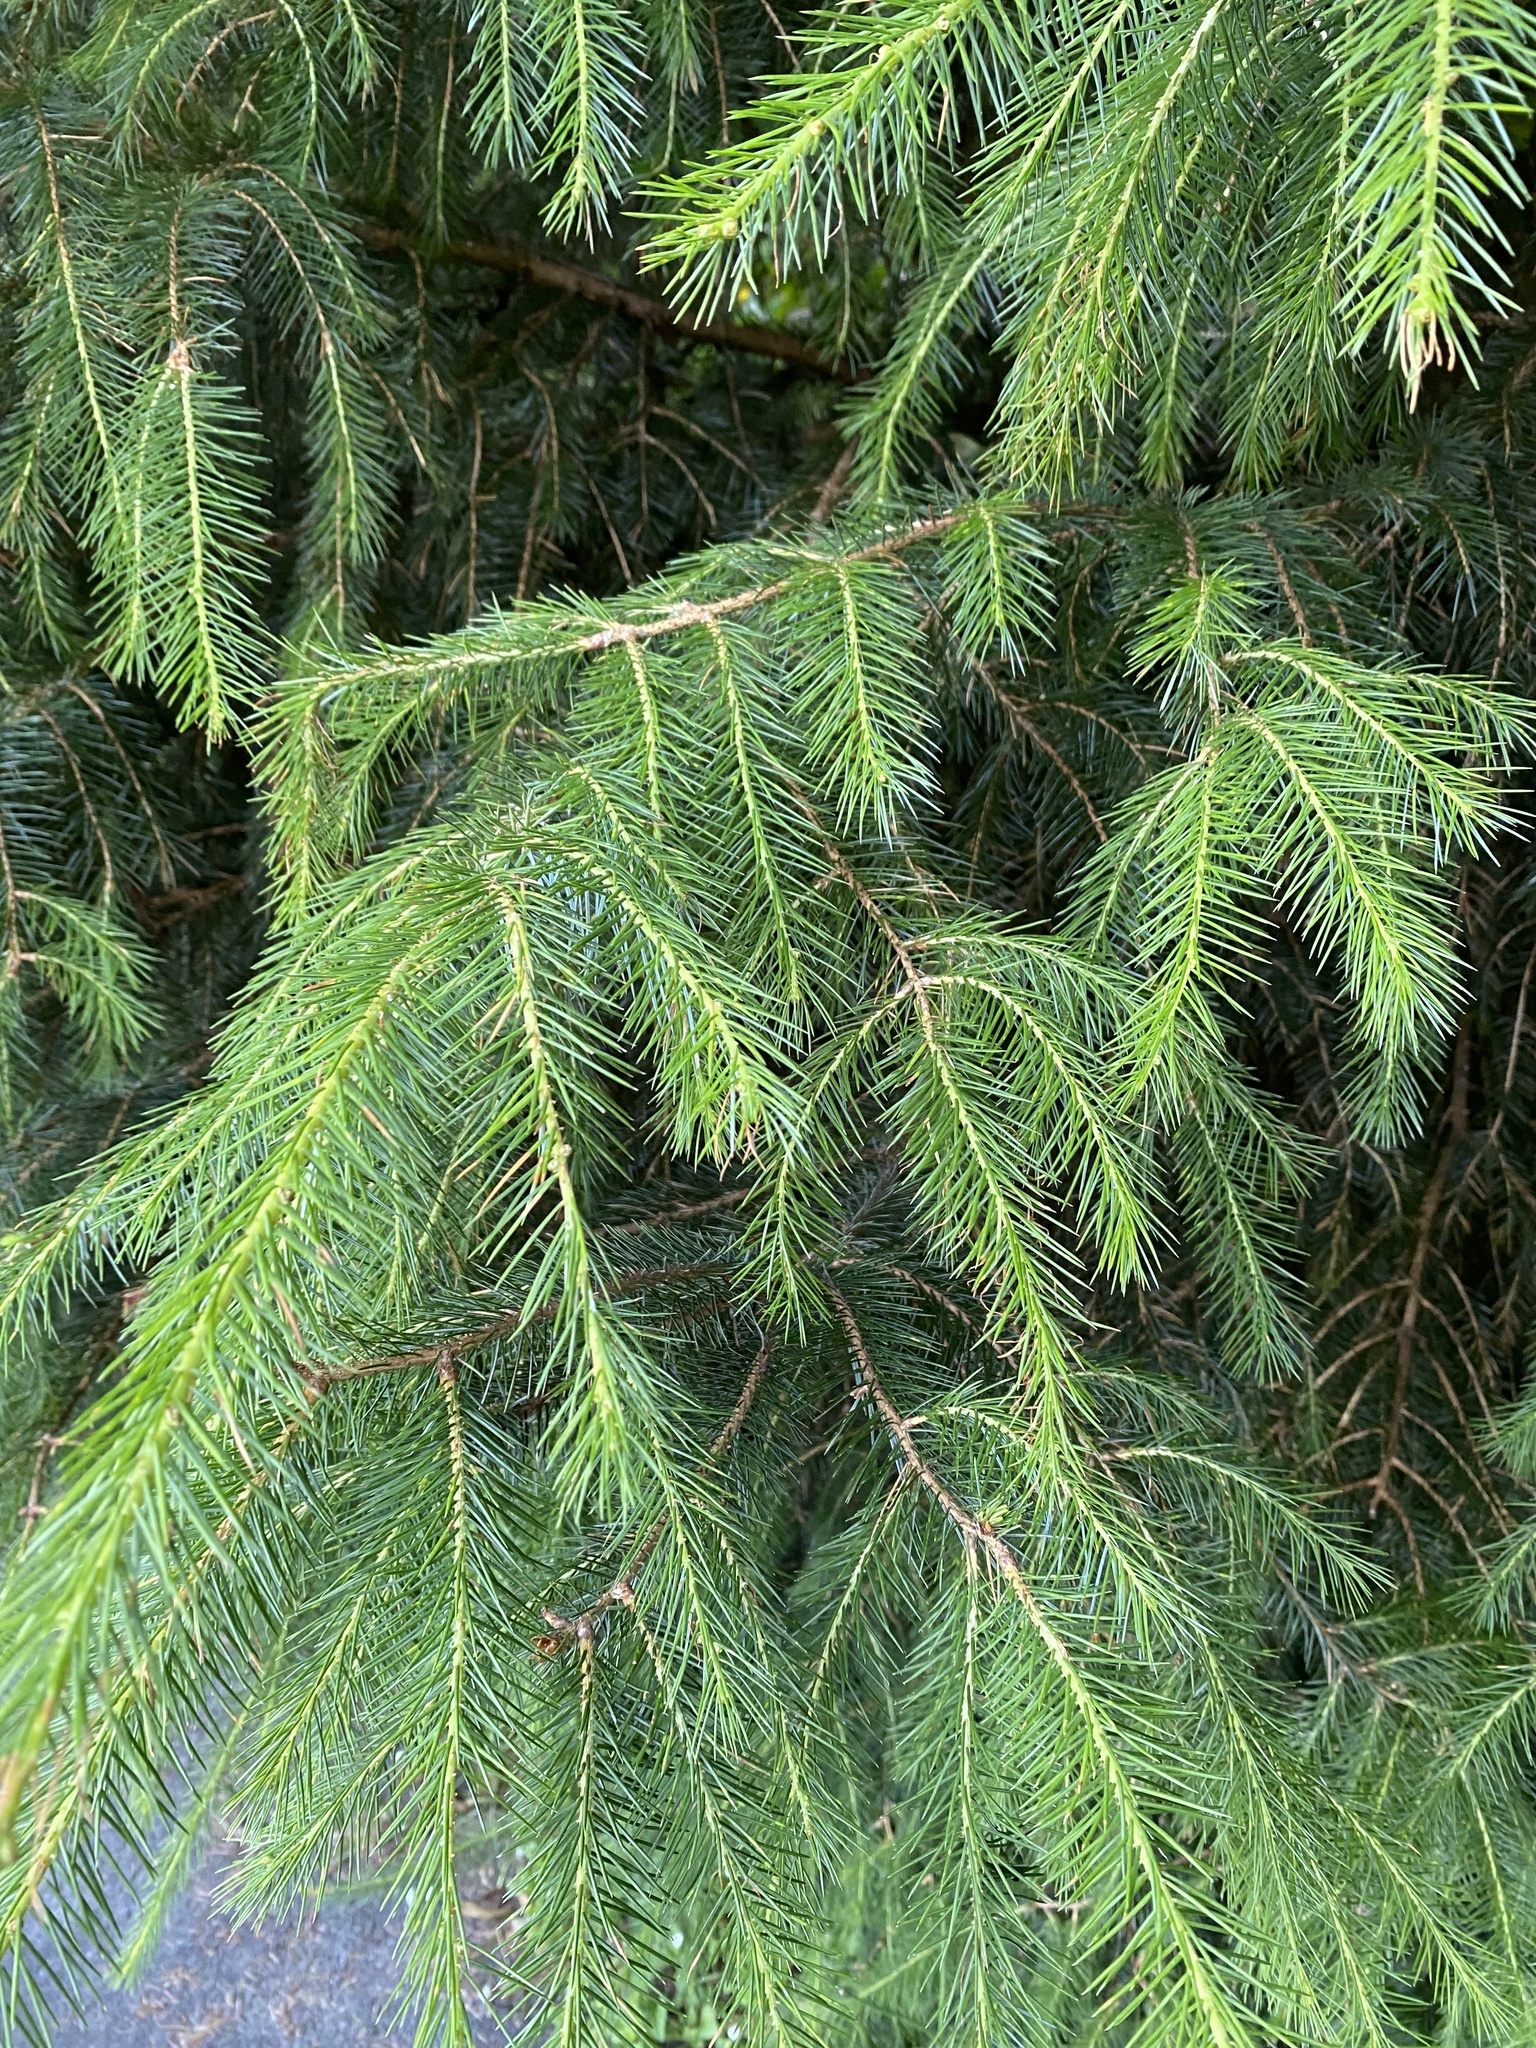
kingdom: Plantae
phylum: Tracheophyta
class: Pinopsida
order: Pinales
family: Pinaceae
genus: Picea
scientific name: Picea sitchensis
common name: Sitka spruce
